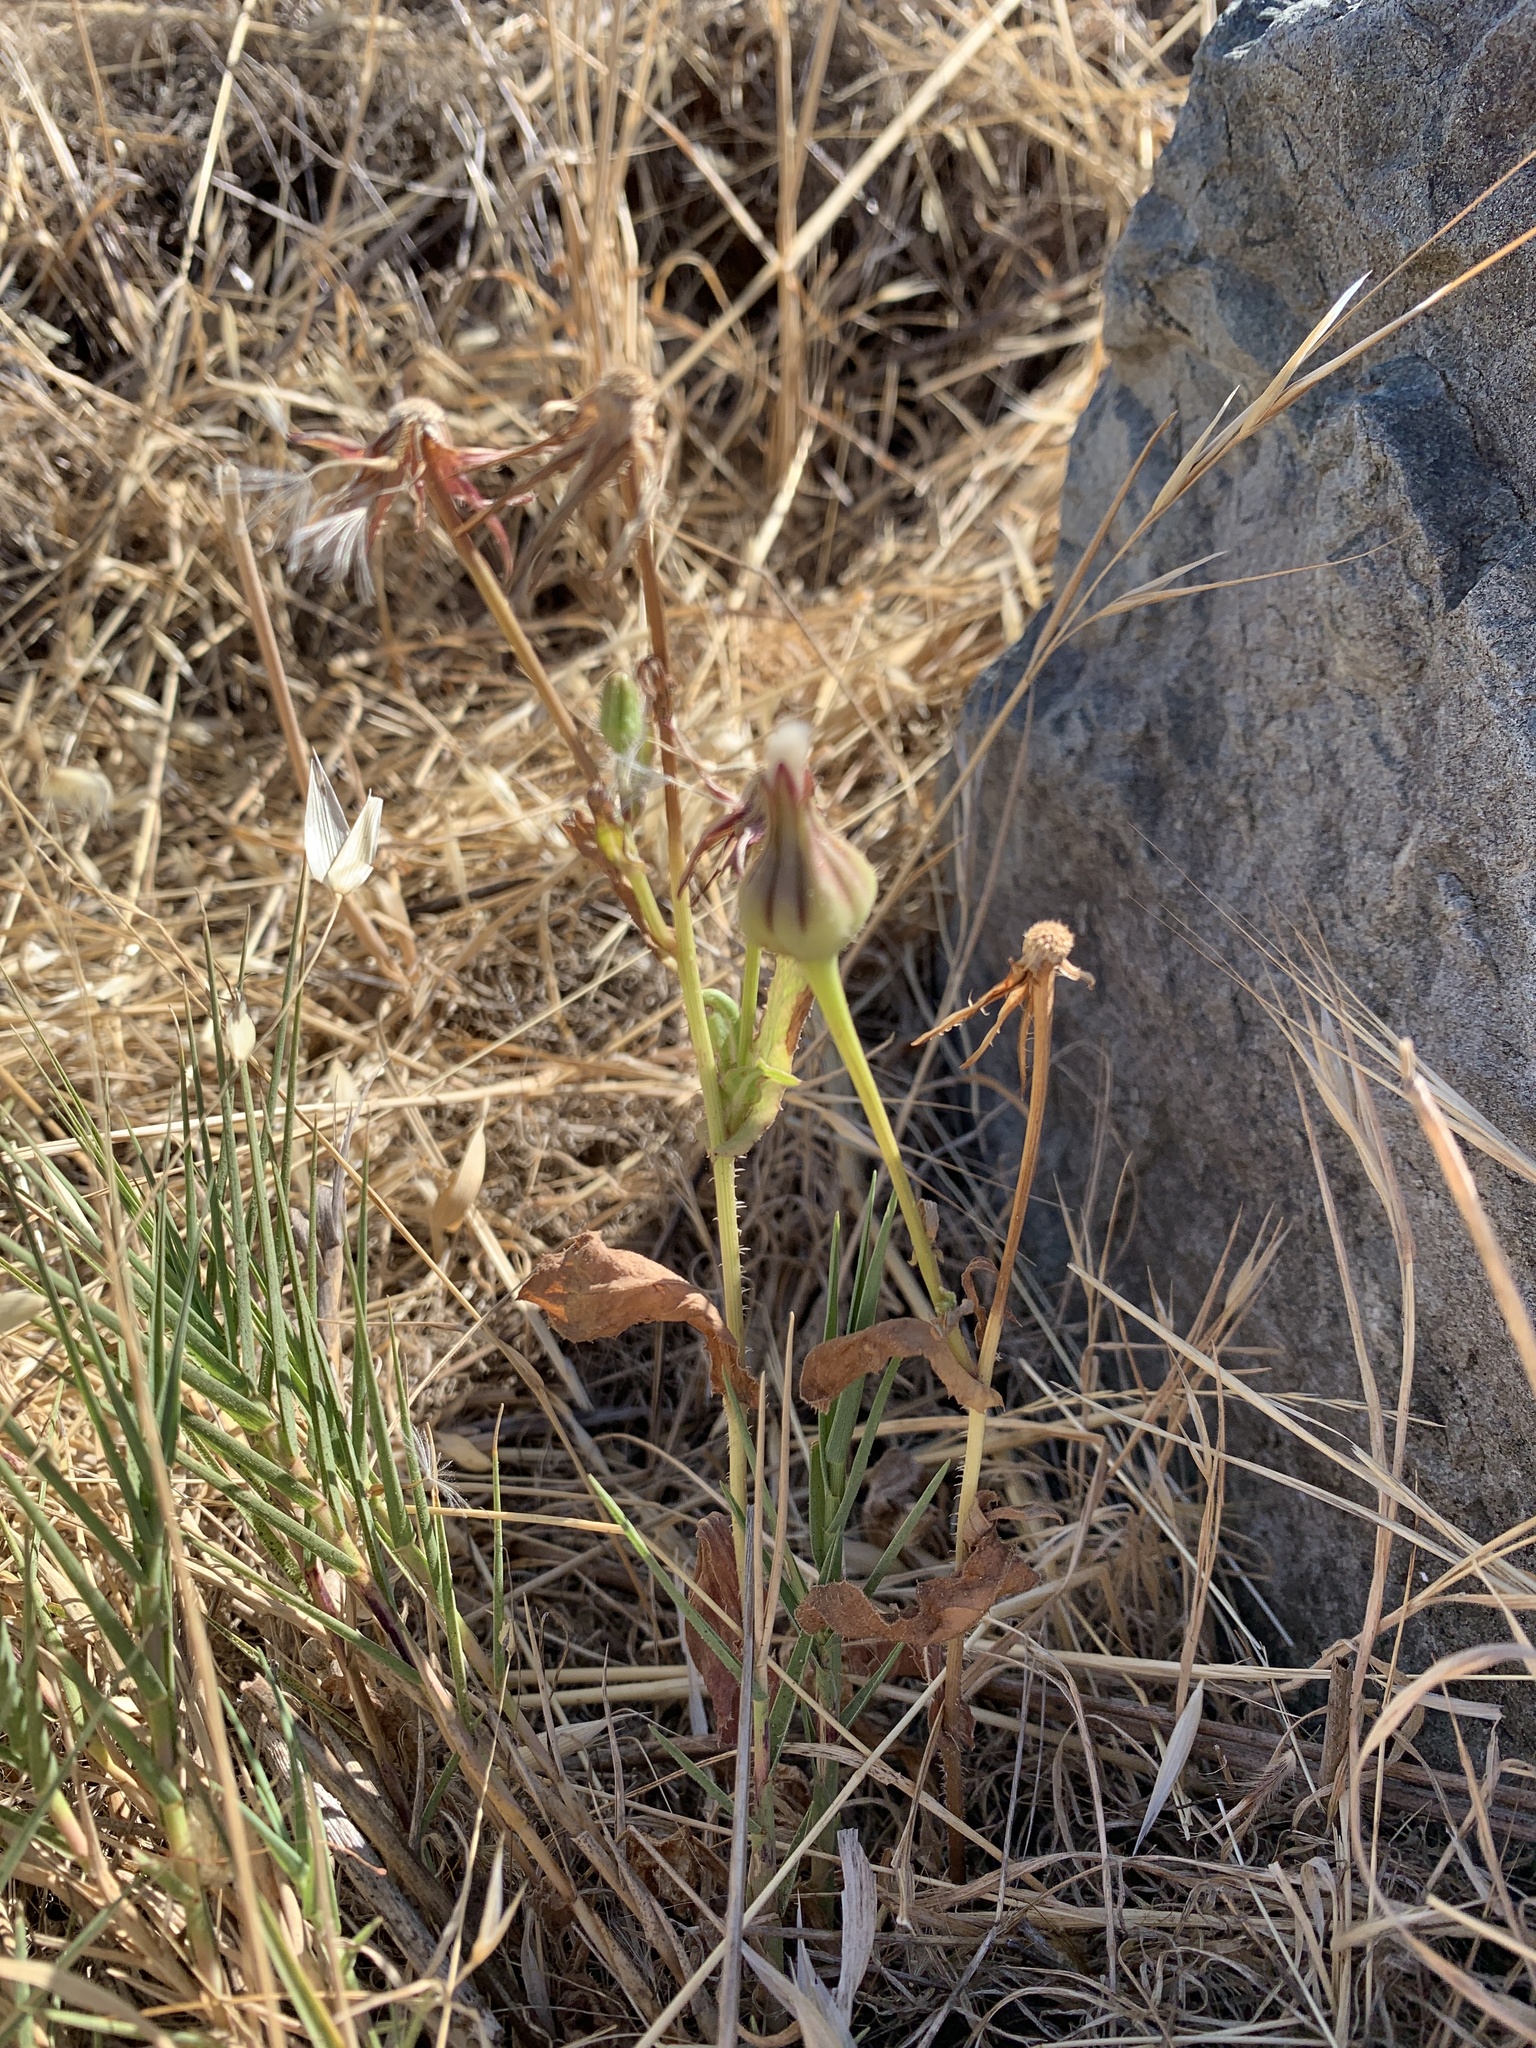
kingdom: Plantae
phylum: Tracheophyta
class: Magnoliopsida
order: Asterales
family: Asteraceae
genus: Urospermum
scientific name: Urospermum picroides
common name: False hawkbit
